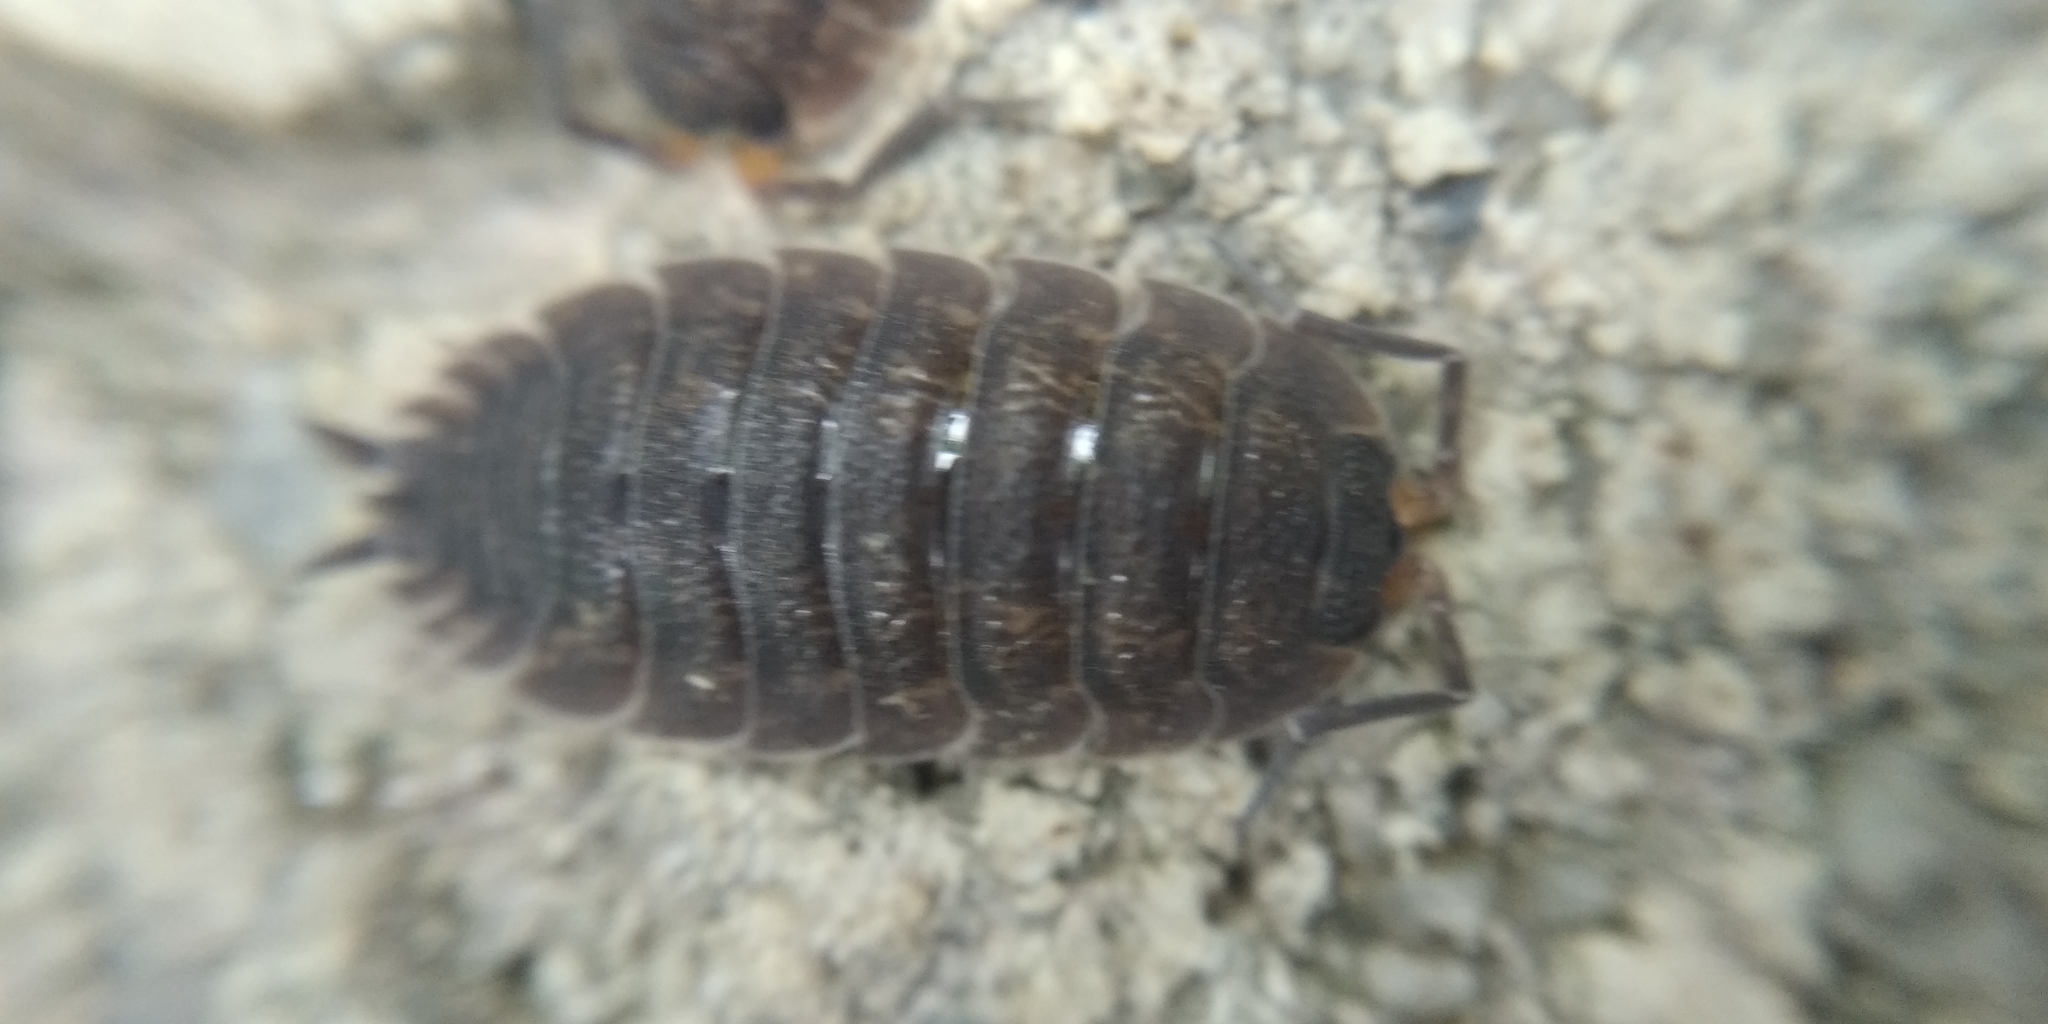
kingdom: Animalia
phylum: Arthropoda
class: Malacostraca
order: Isopoda
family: Porcellionidae
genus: Porcellio
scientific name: Porcellio scaber
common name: Common rough woodlouse
